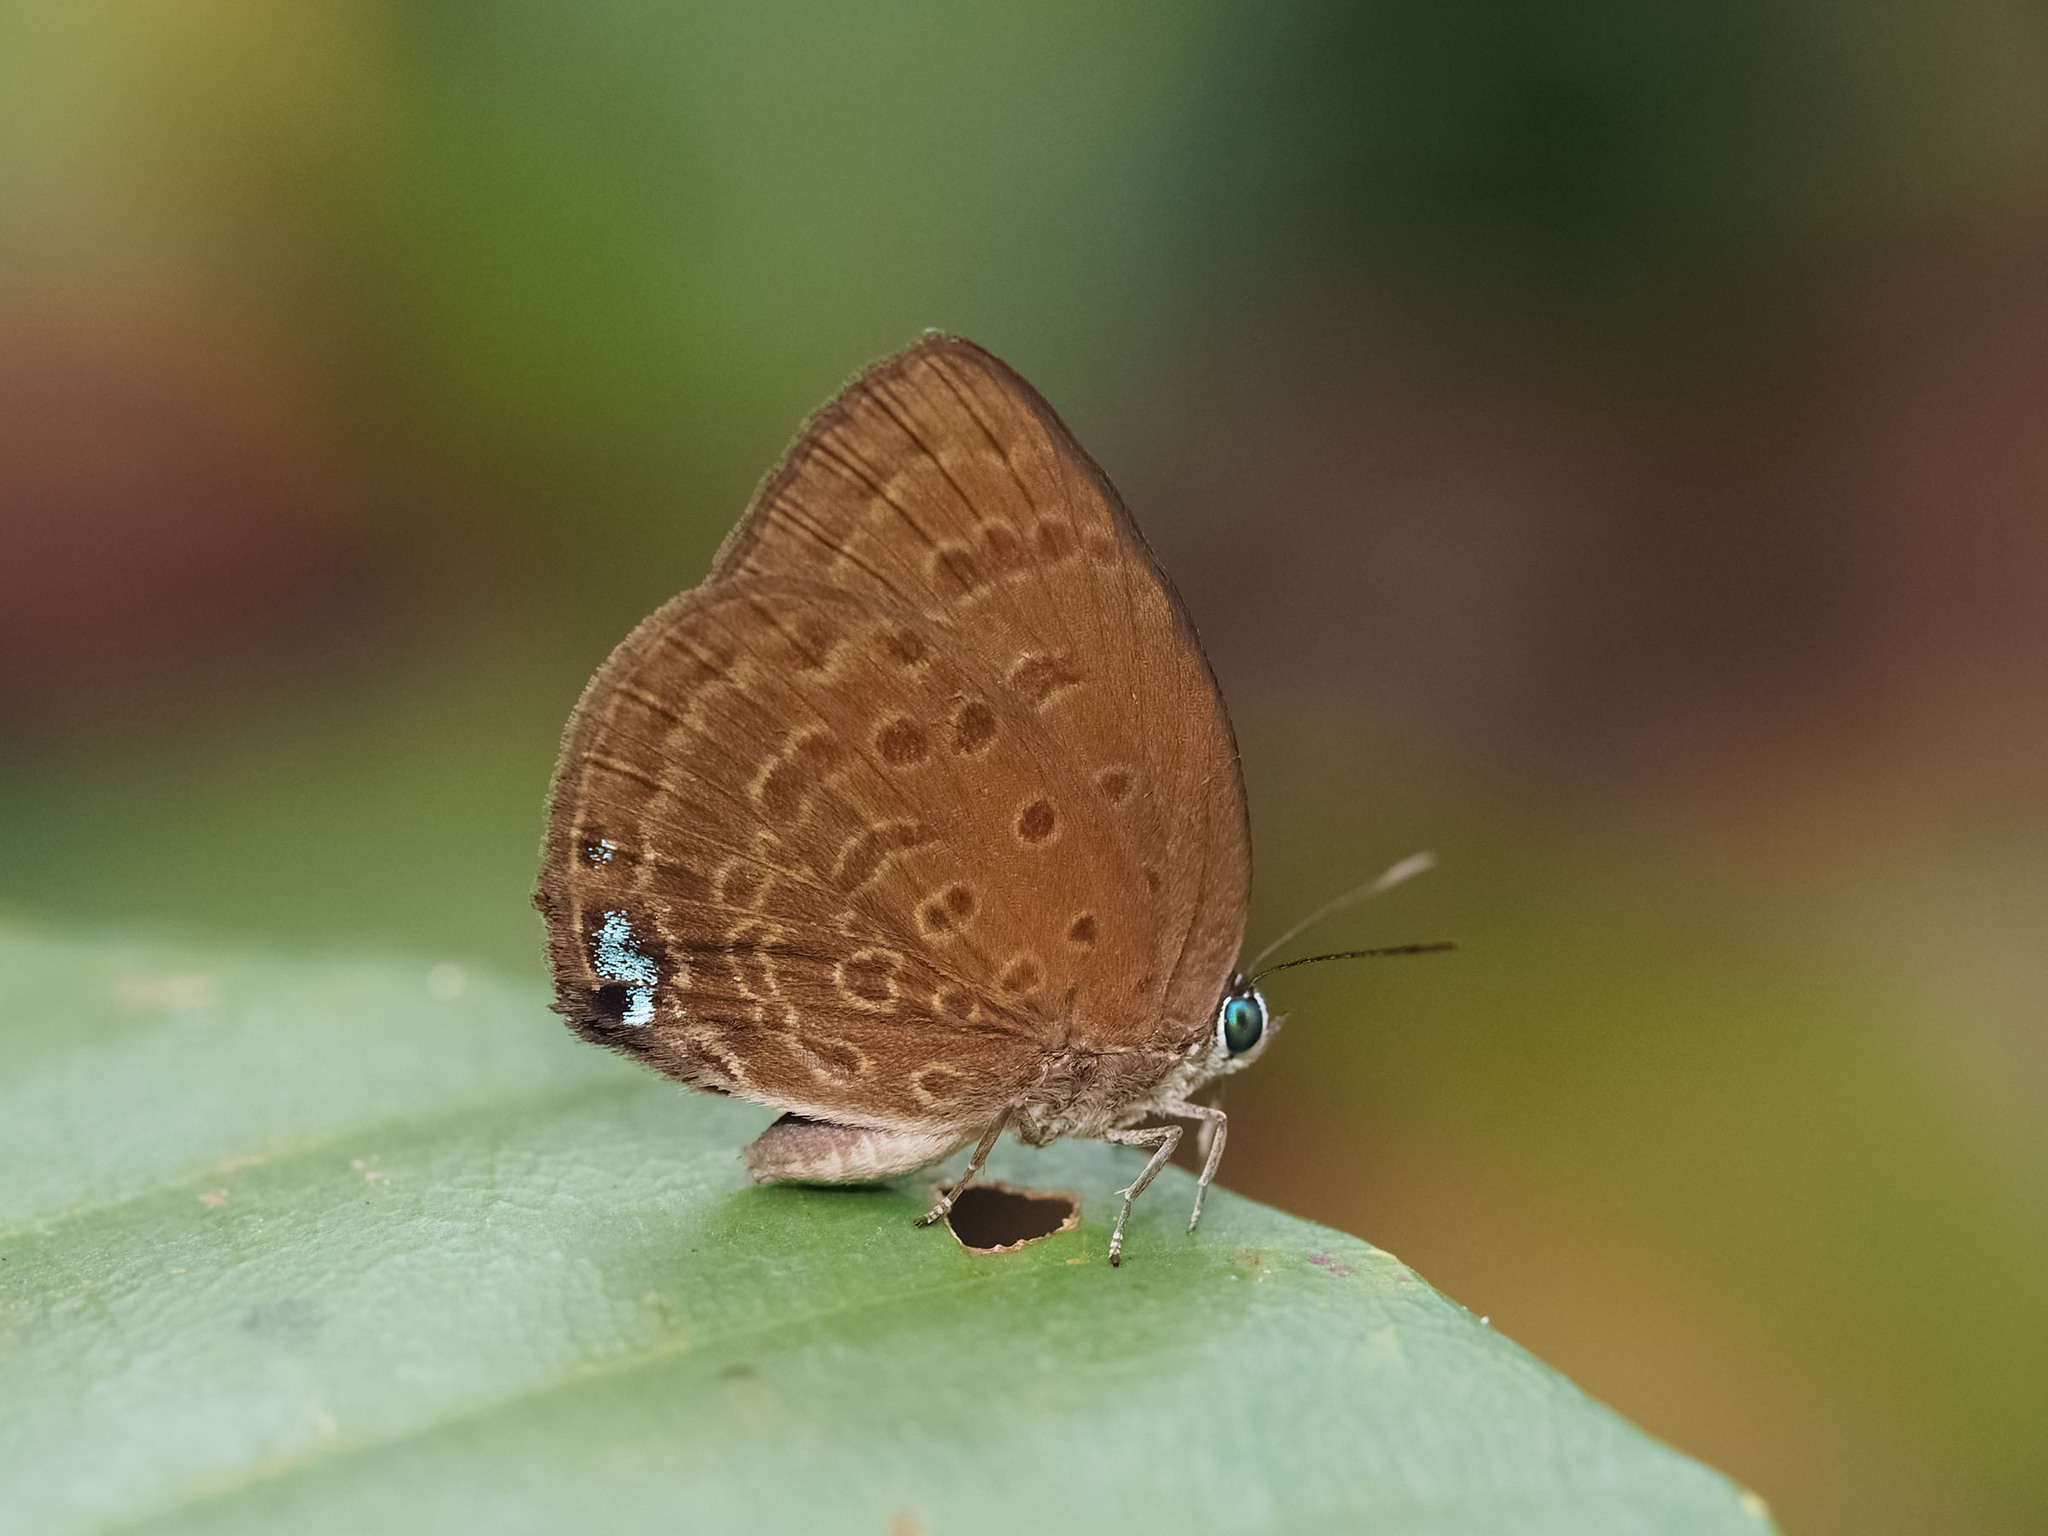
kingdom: Animalia
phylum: Arthropoda
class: Insecta
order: Lepidoptera
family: Lycaenidae
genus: Arhopala
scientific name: Arhopala major
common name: Major yellow oakblue
